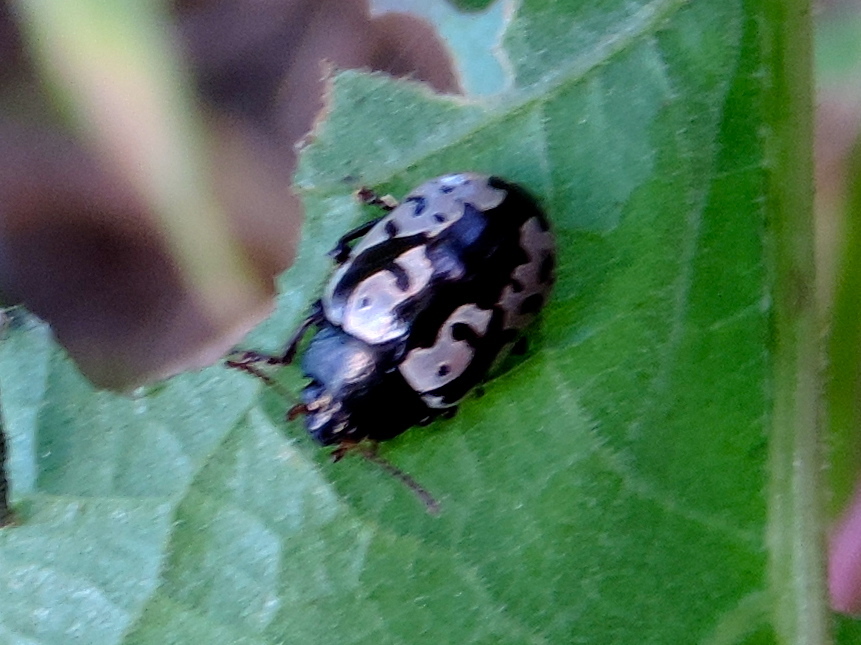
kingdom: Animalia
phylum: Arthropoda
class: Insecta
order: Coleoptera
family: Chrysomelidae
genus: Calligrapha
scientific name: Calligrapha intermedia
